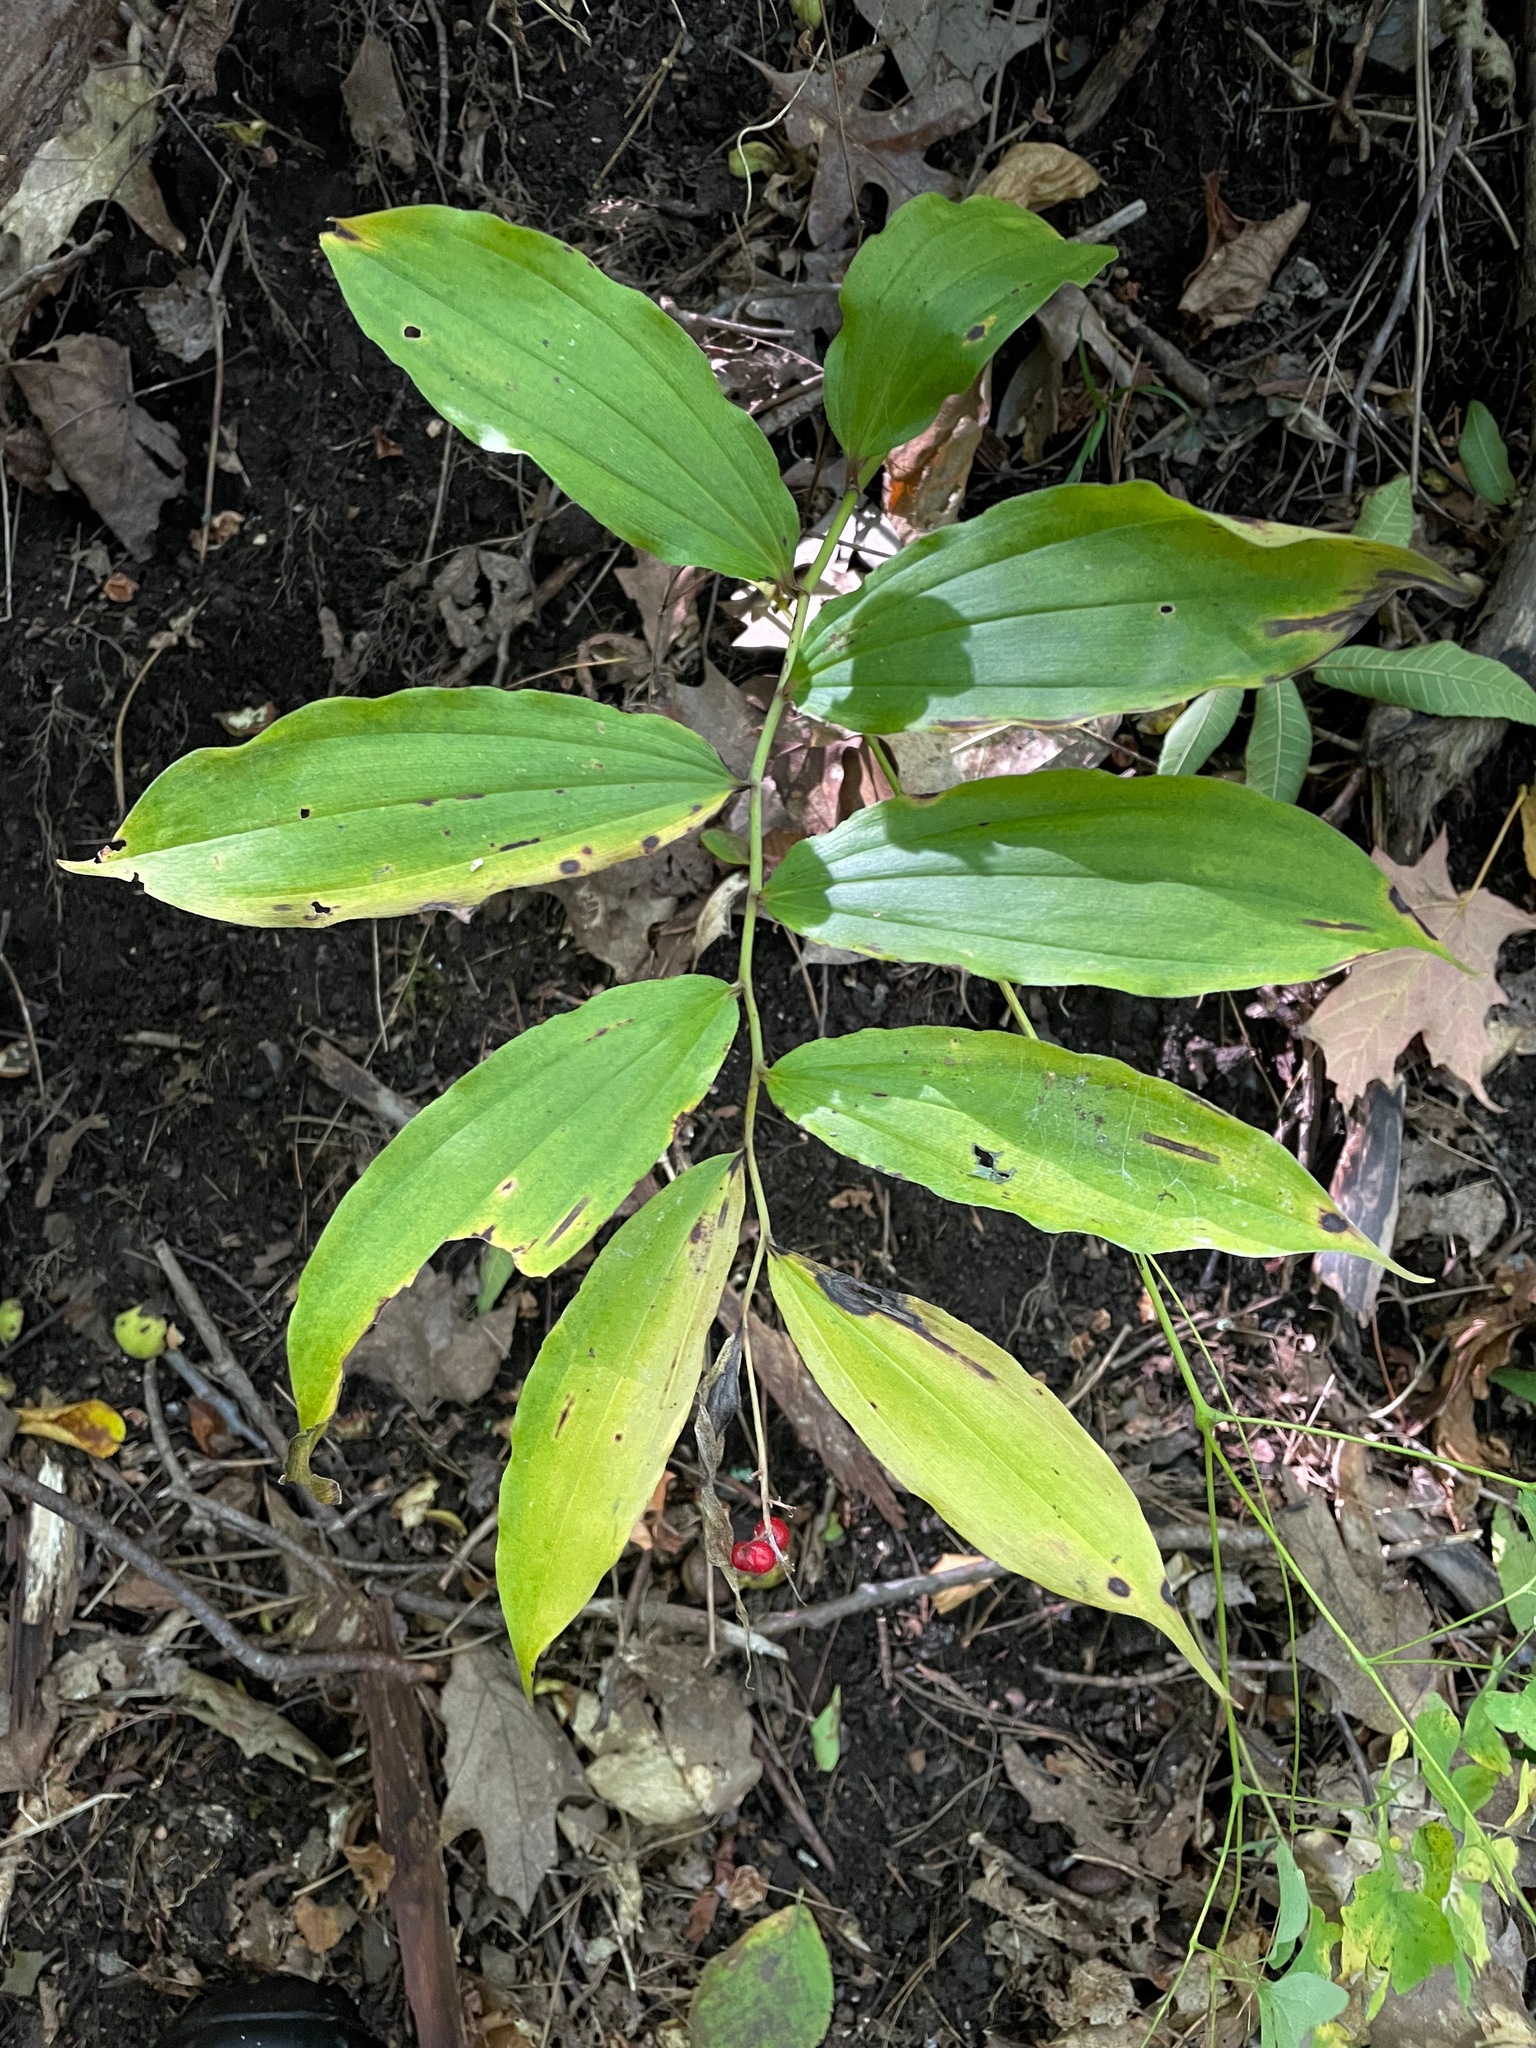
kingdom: Plantae
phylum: Tracheophyta
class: Liliopsida
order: Asparagales
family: Asparagaceae
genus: Maianthemum
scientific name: Maianthemum racemosum
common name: False spikenard
